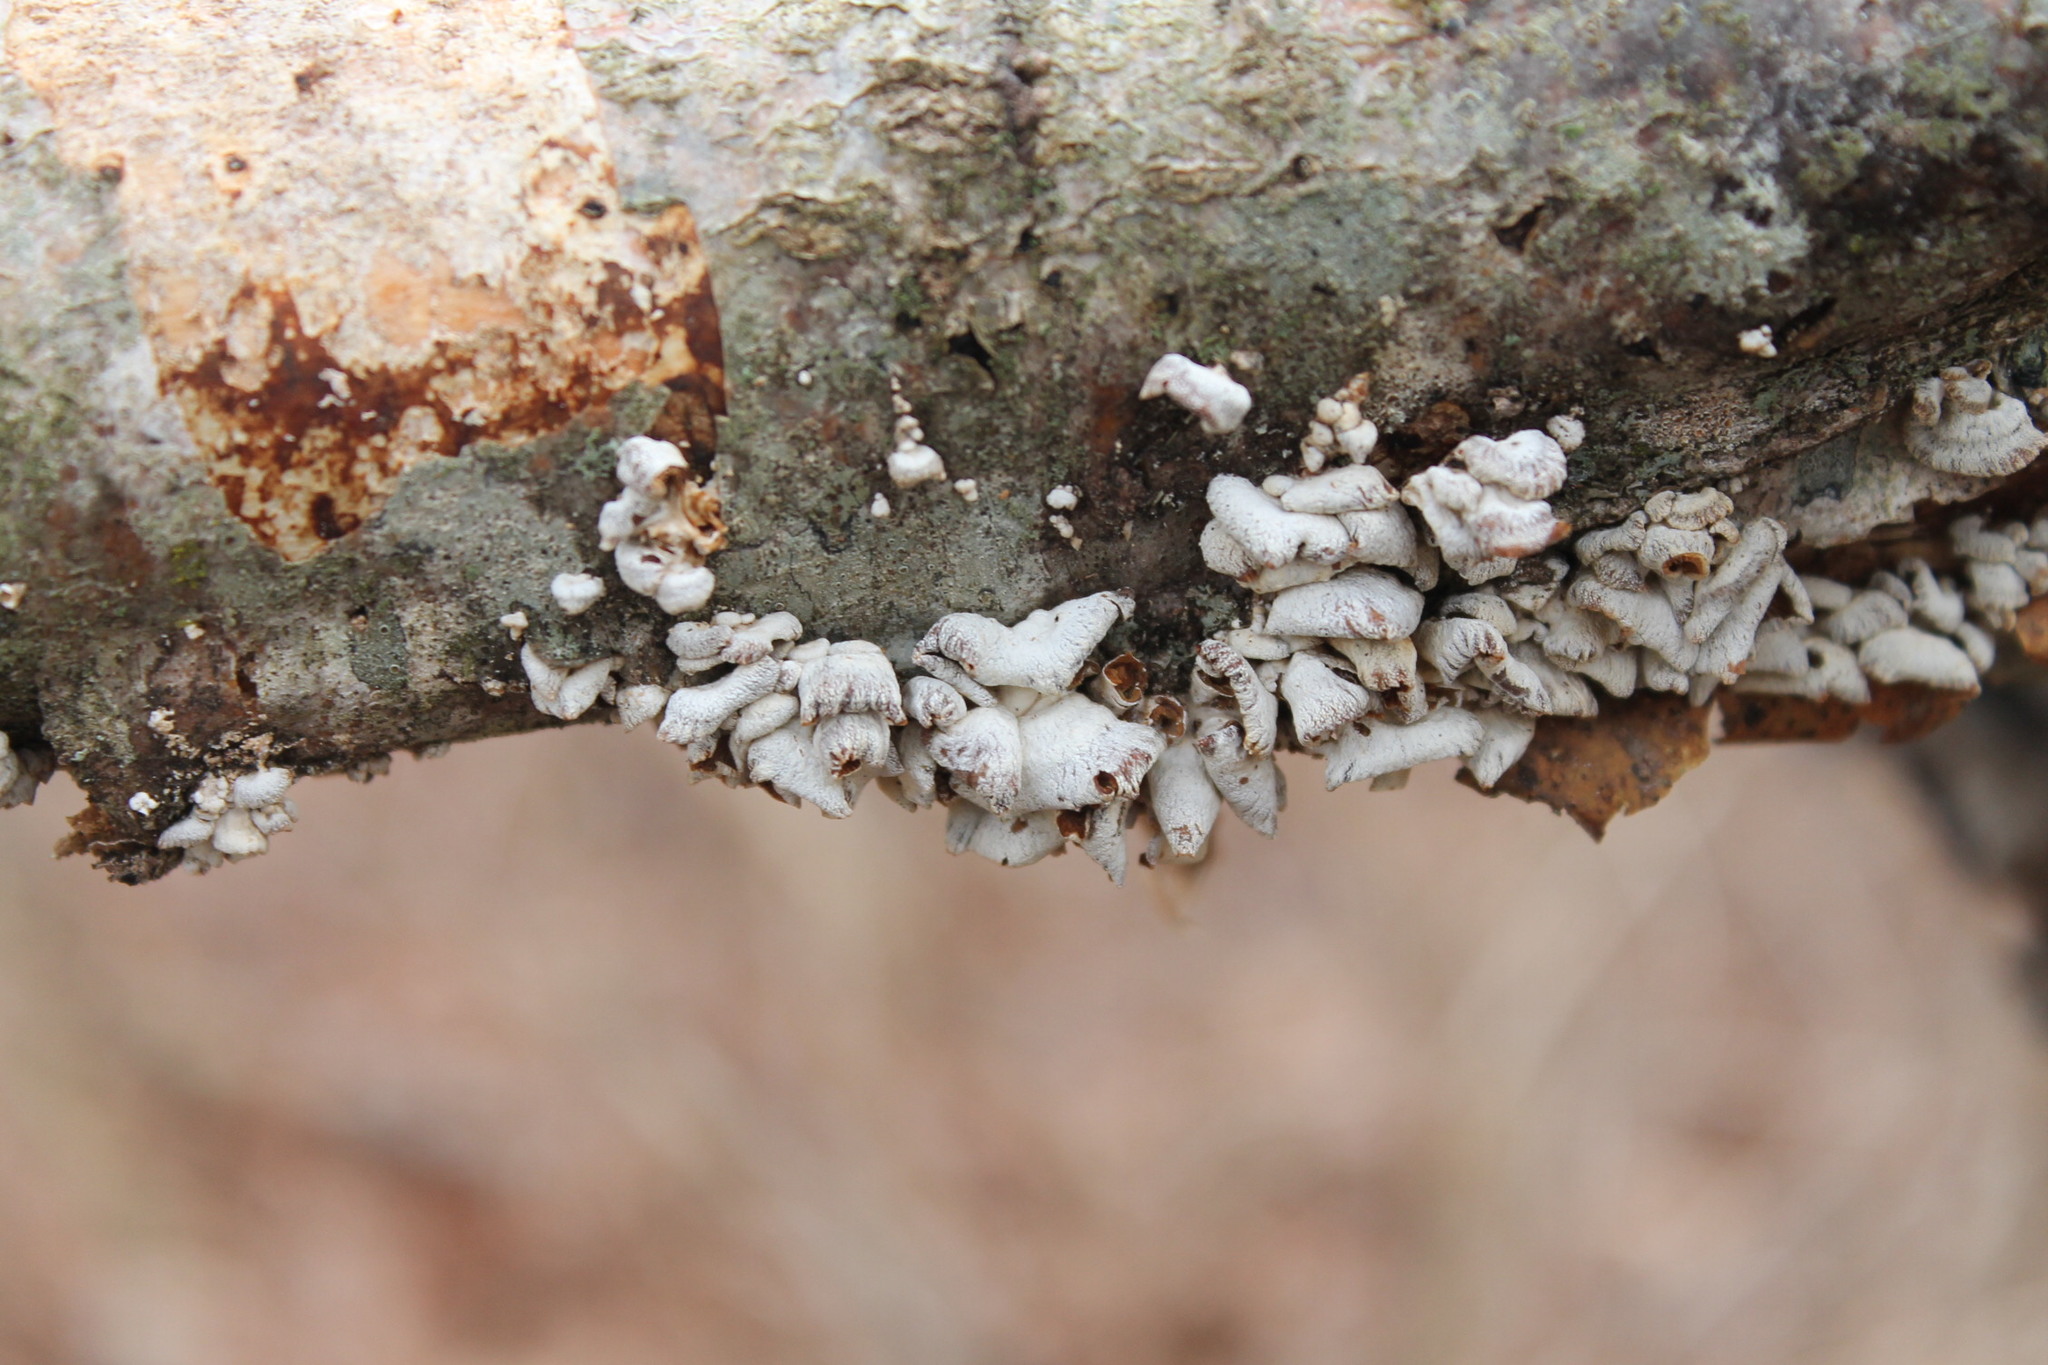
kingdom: Fungi
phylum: Basidiomycota
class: Agaricomycetes
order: Agaricales
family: Mycenaceae
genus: Panellus
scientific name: Panellus stipticus
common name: Bitter oysterling
